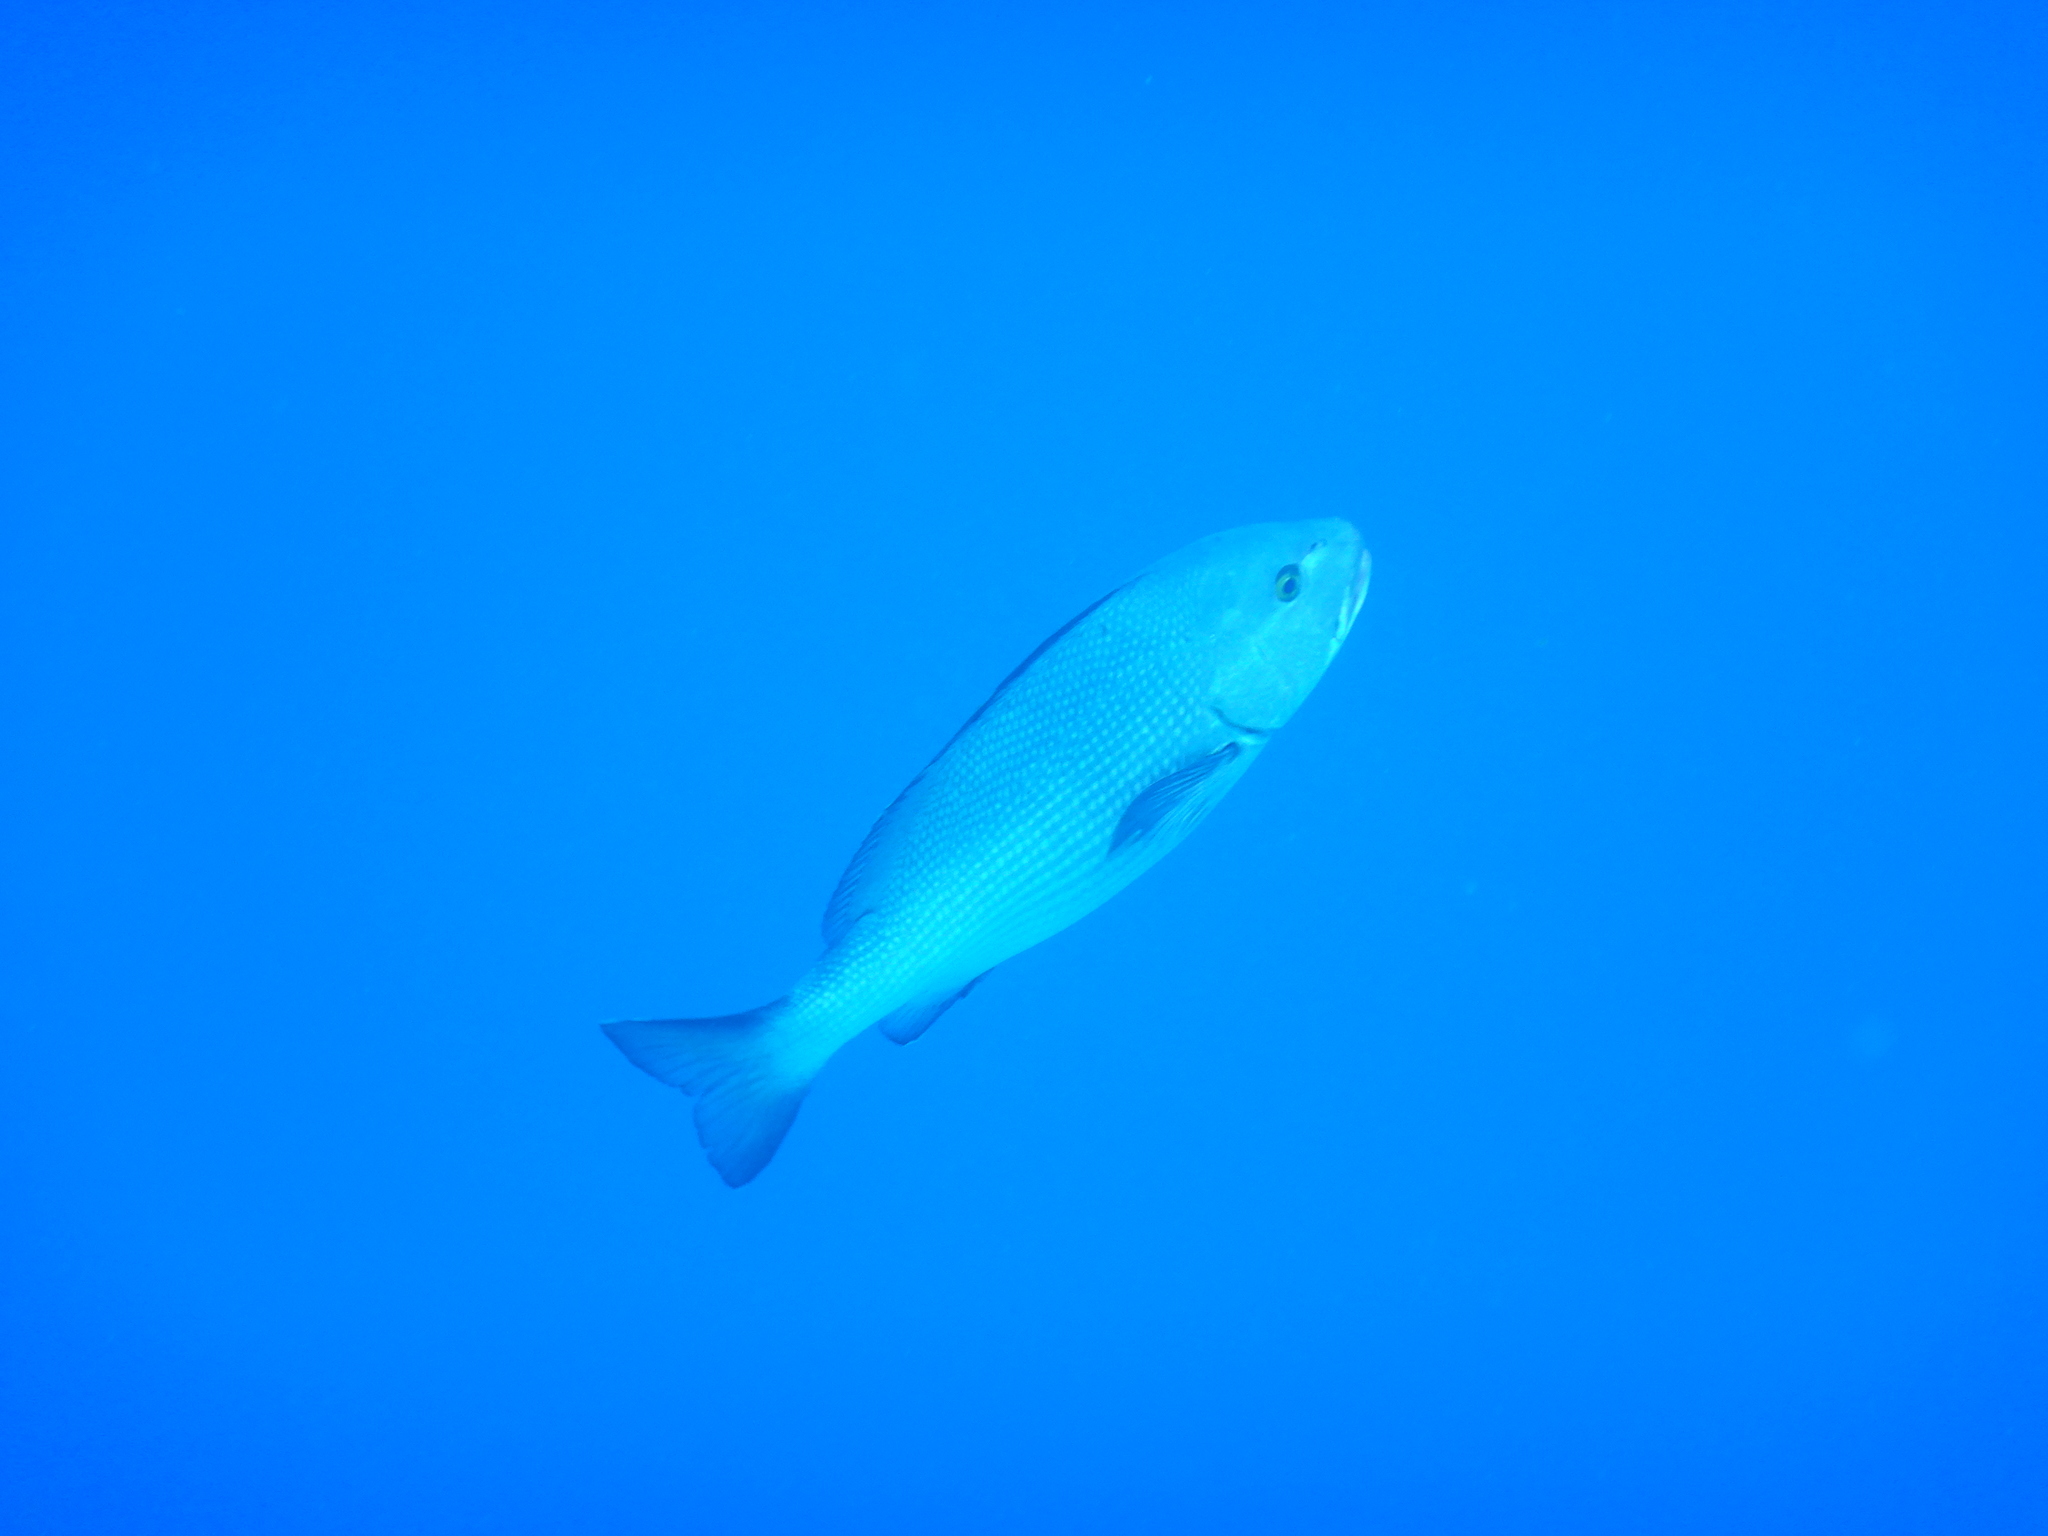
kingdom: Animalia
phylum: Chordata
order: Perciformes
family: Lutjanidae
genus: Lutjanus
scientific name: Lutjanus bohar
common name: Red bass
